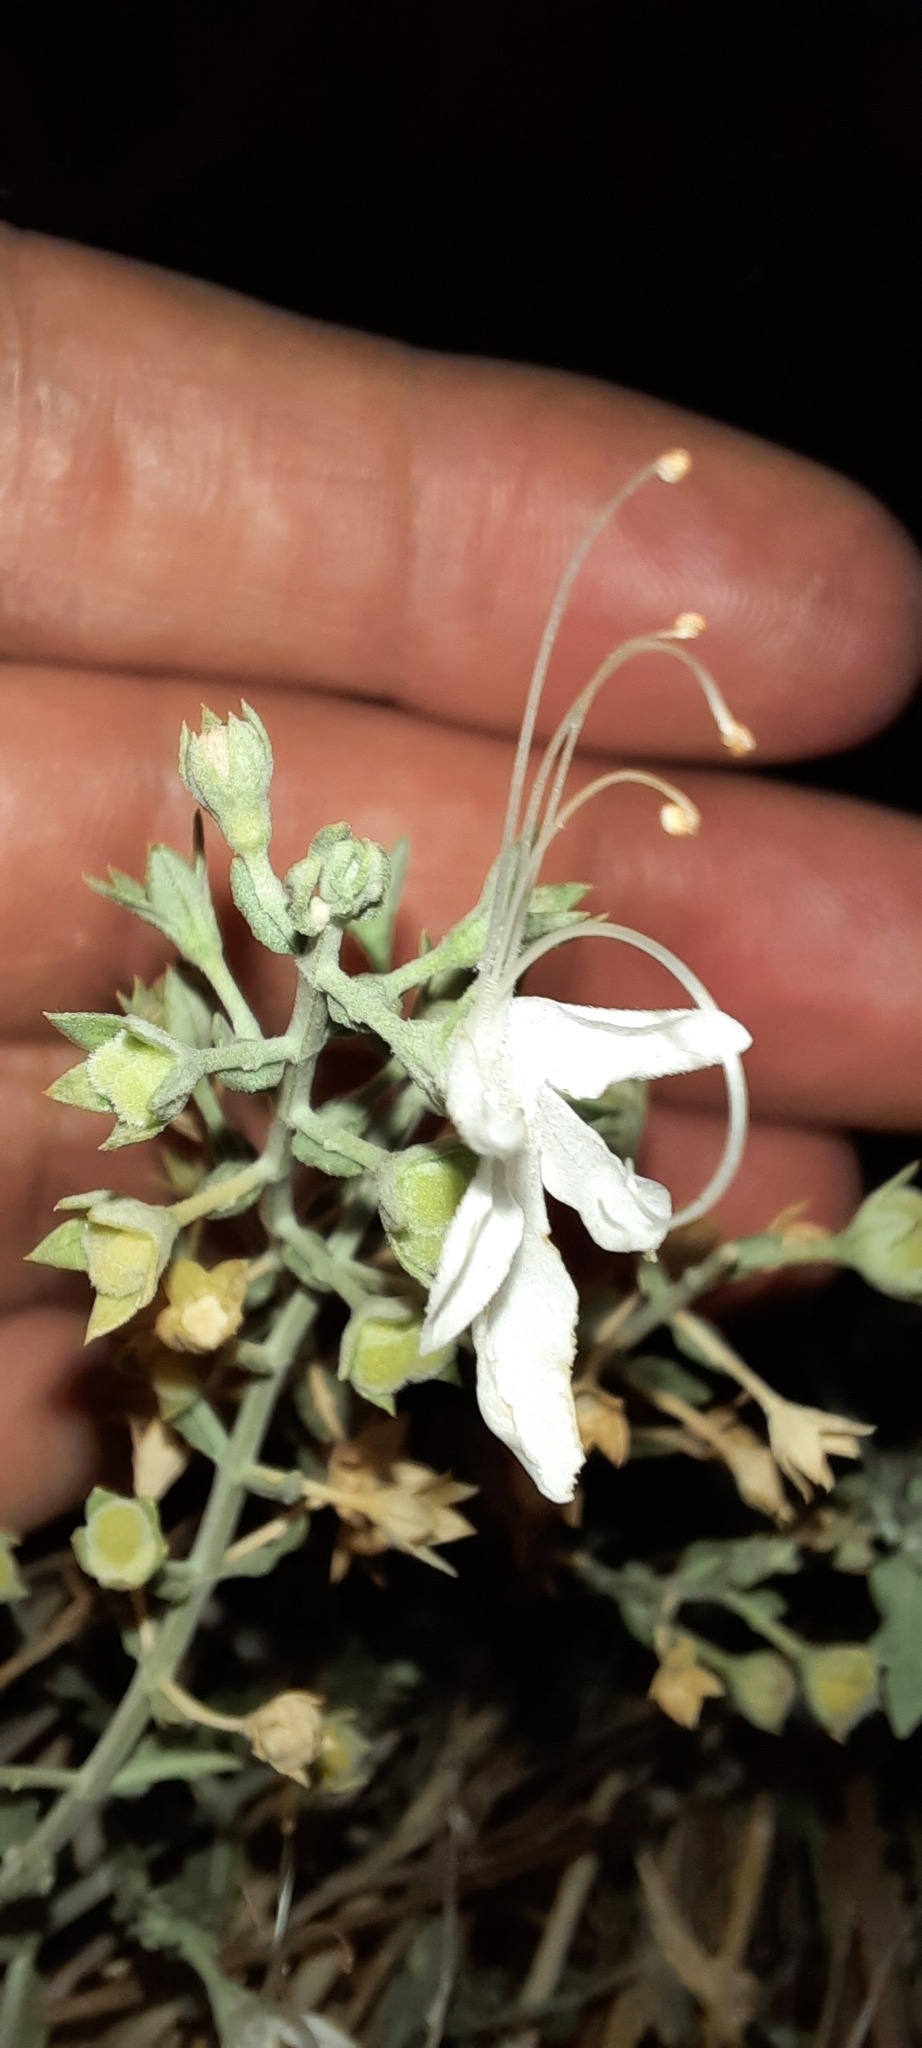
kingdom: Plantae
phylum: Tracheophyta
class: Magnoliopsida
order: Lamiales
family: Lamiaceae
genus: Teucrium
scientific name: Teucrium racemosum
